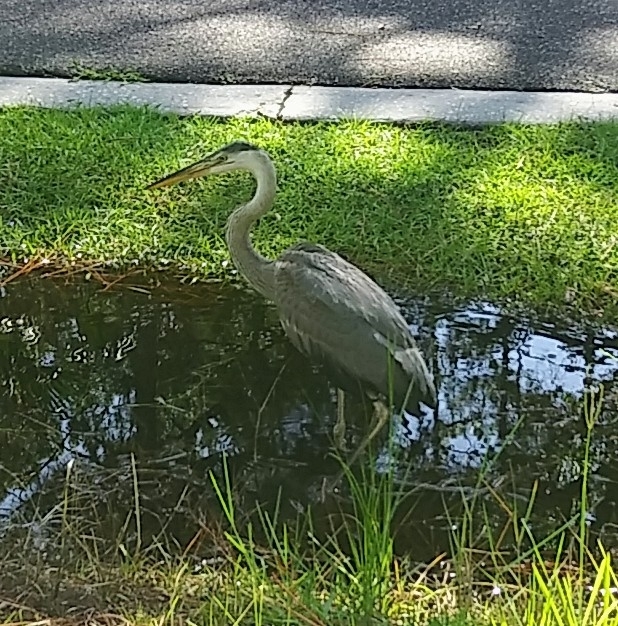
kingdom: Animalia
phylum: Chordata
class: Aves
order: Pelecaniformes
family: Ardeidae
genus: Ardea
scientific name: Ardea herodias
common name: Great blue heron
